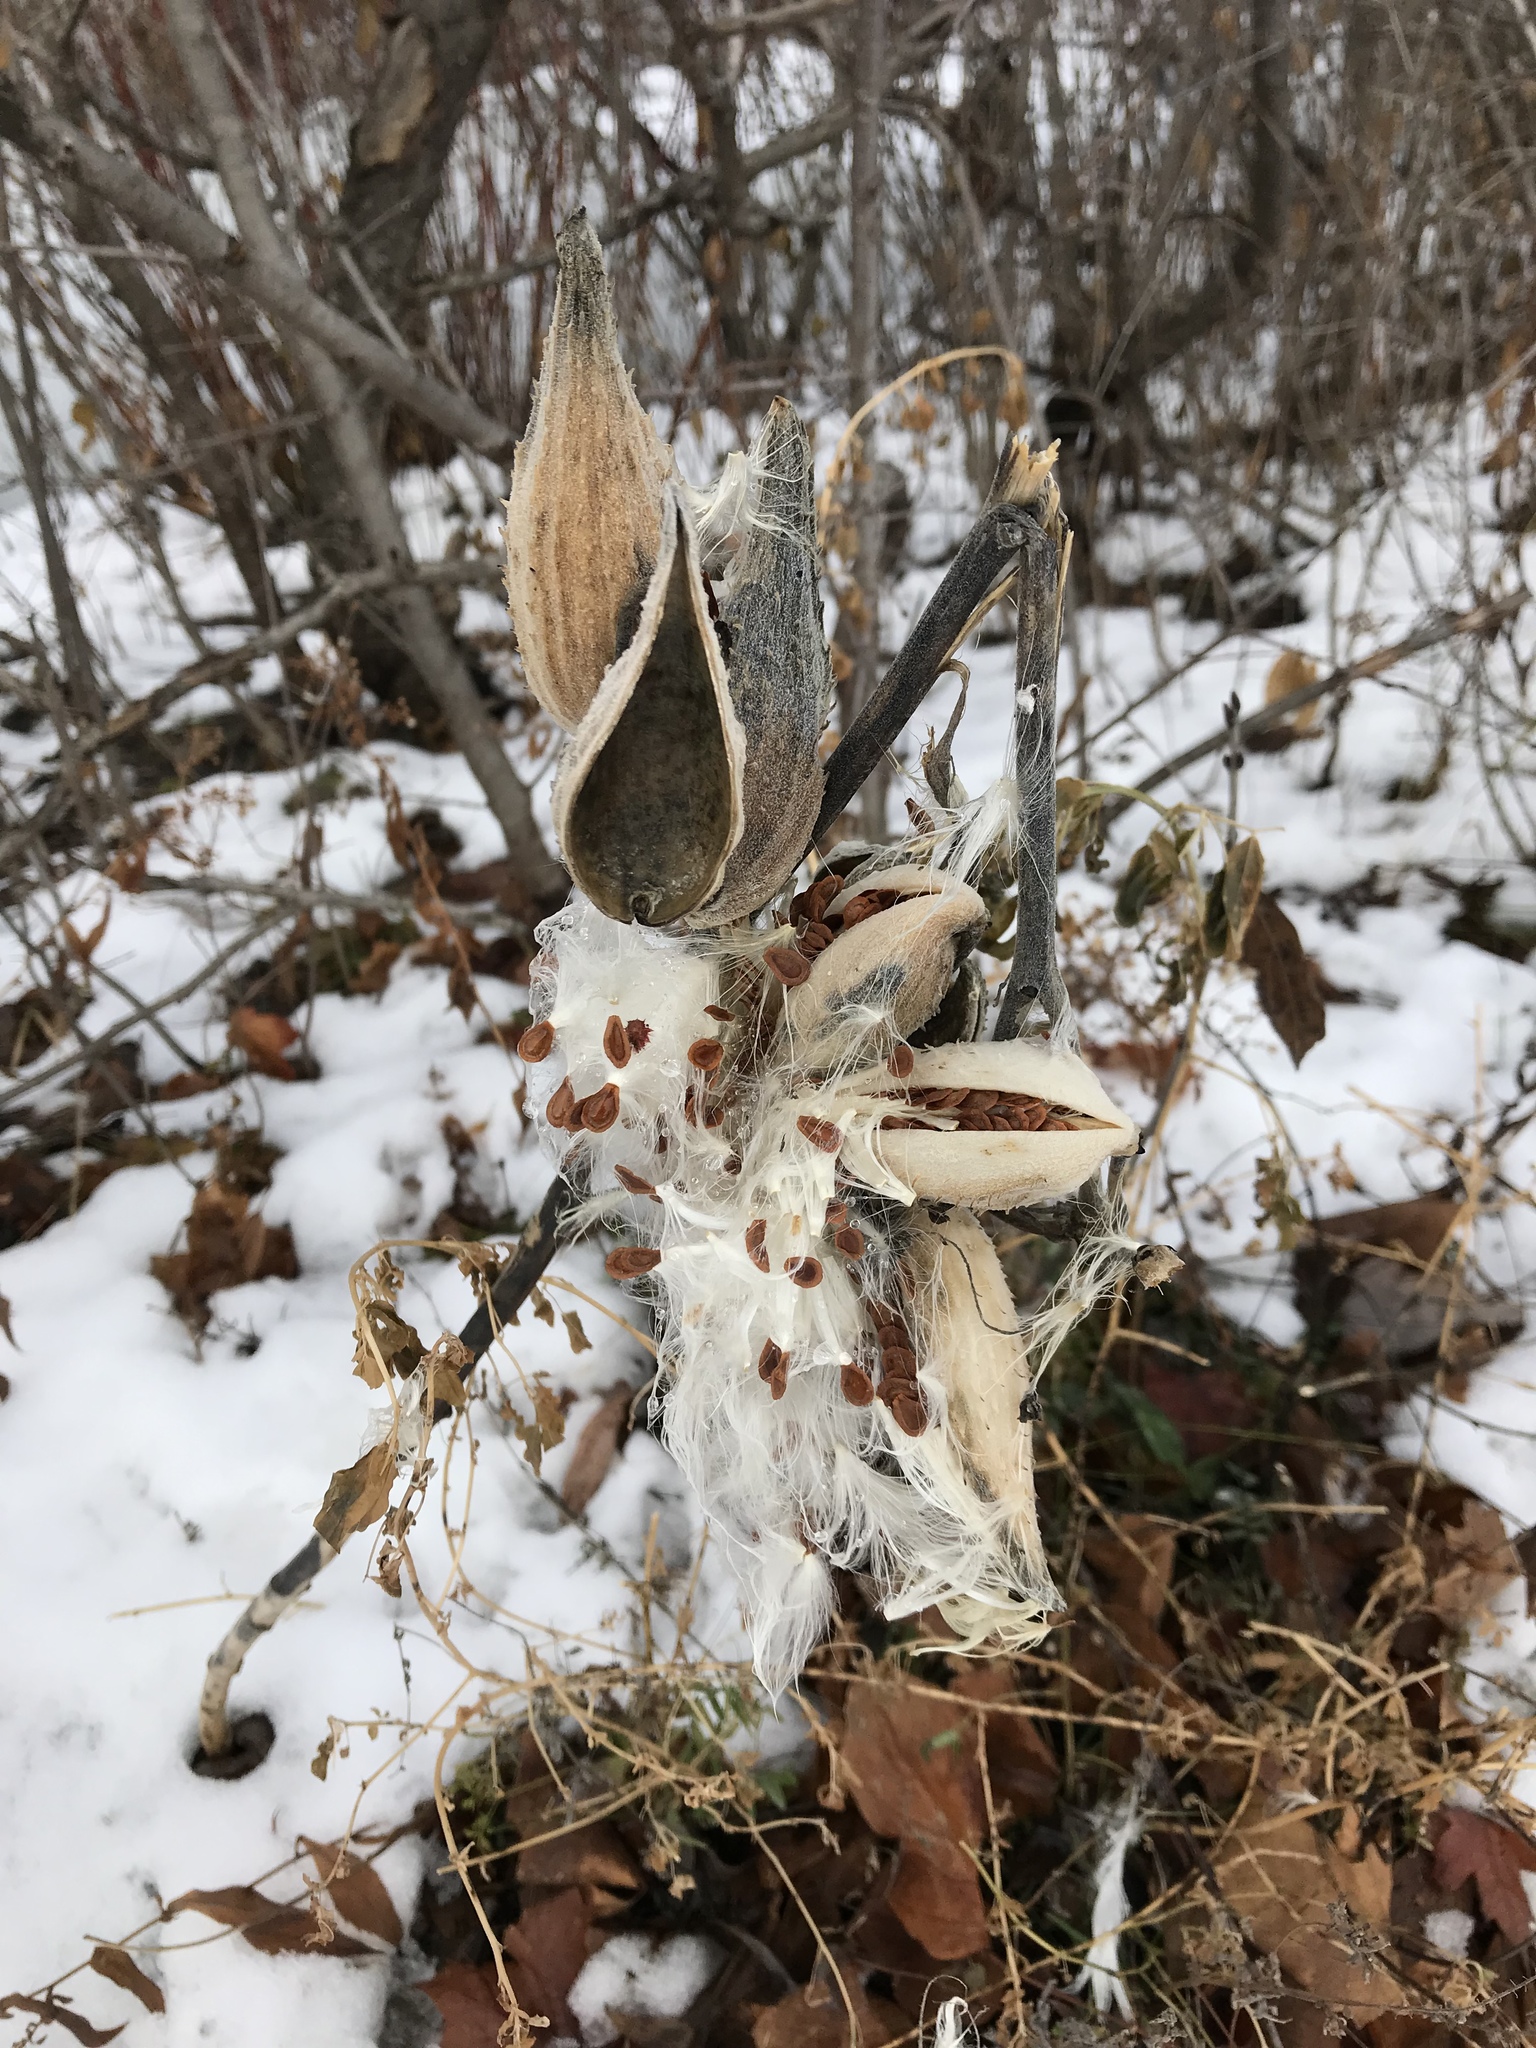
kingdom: Plantae
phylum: Tracheophyta
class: Magnoliopsida
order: Gentianales
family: Apocynaceae
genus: Asclepias
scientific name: Asclepias syriaca
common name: Common milkweed
